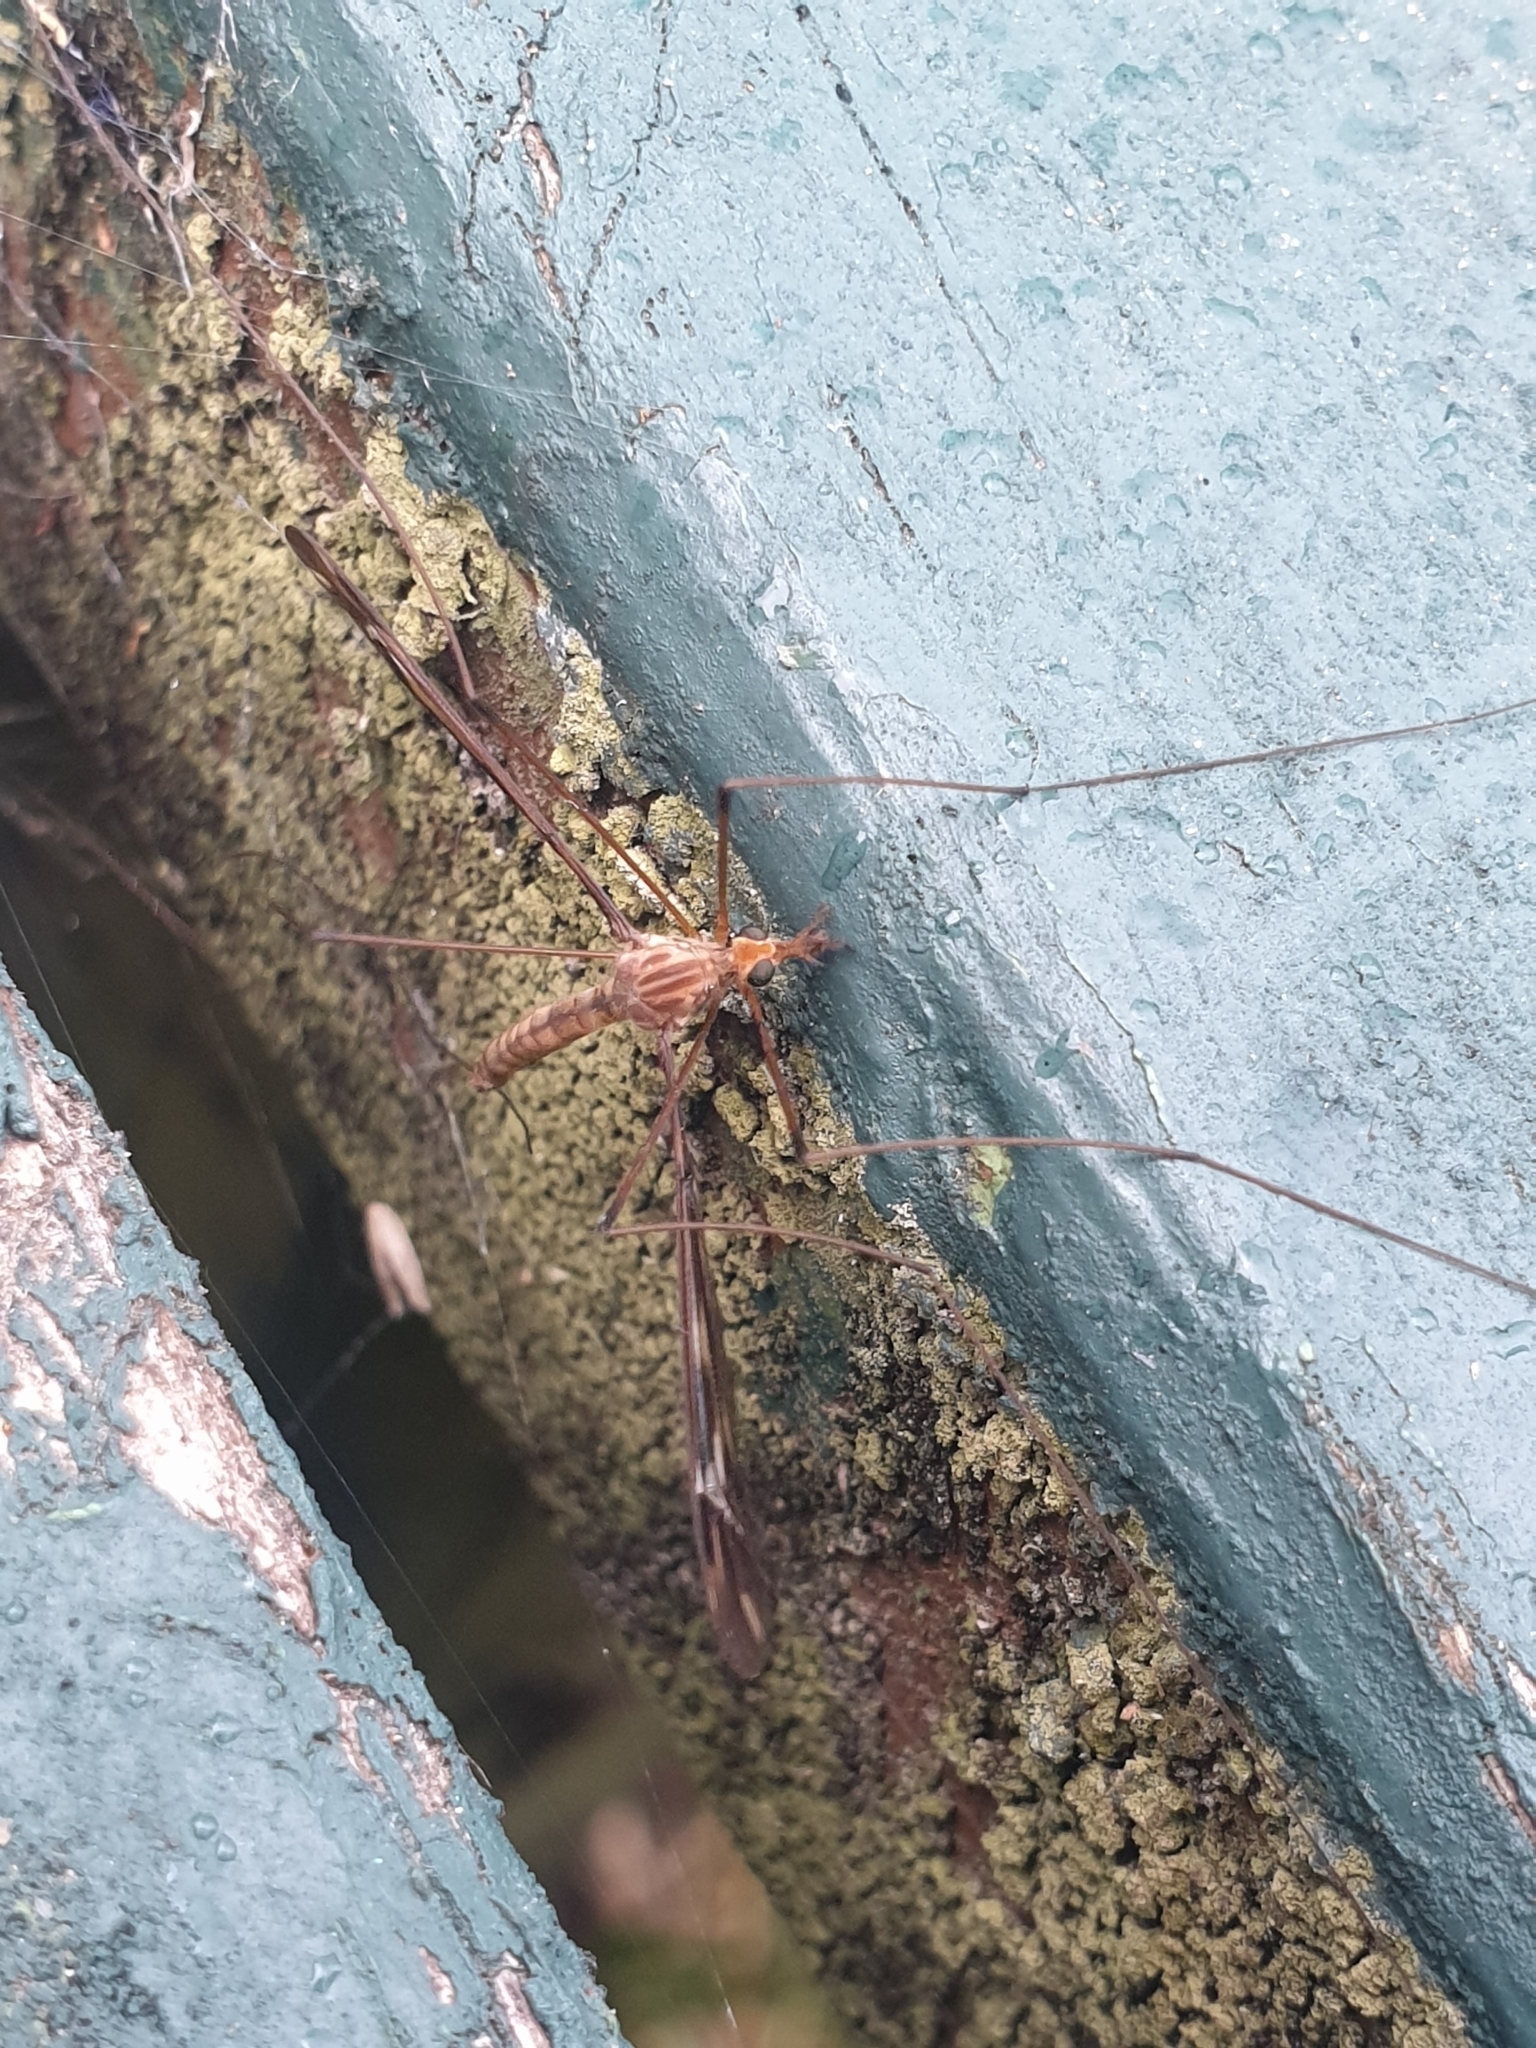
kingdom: Animalia
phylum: Arthropoda
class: Insecta
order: Diptera
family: Tipulidae
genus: Leptotarsus
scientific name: Leptotarsus huttoni
